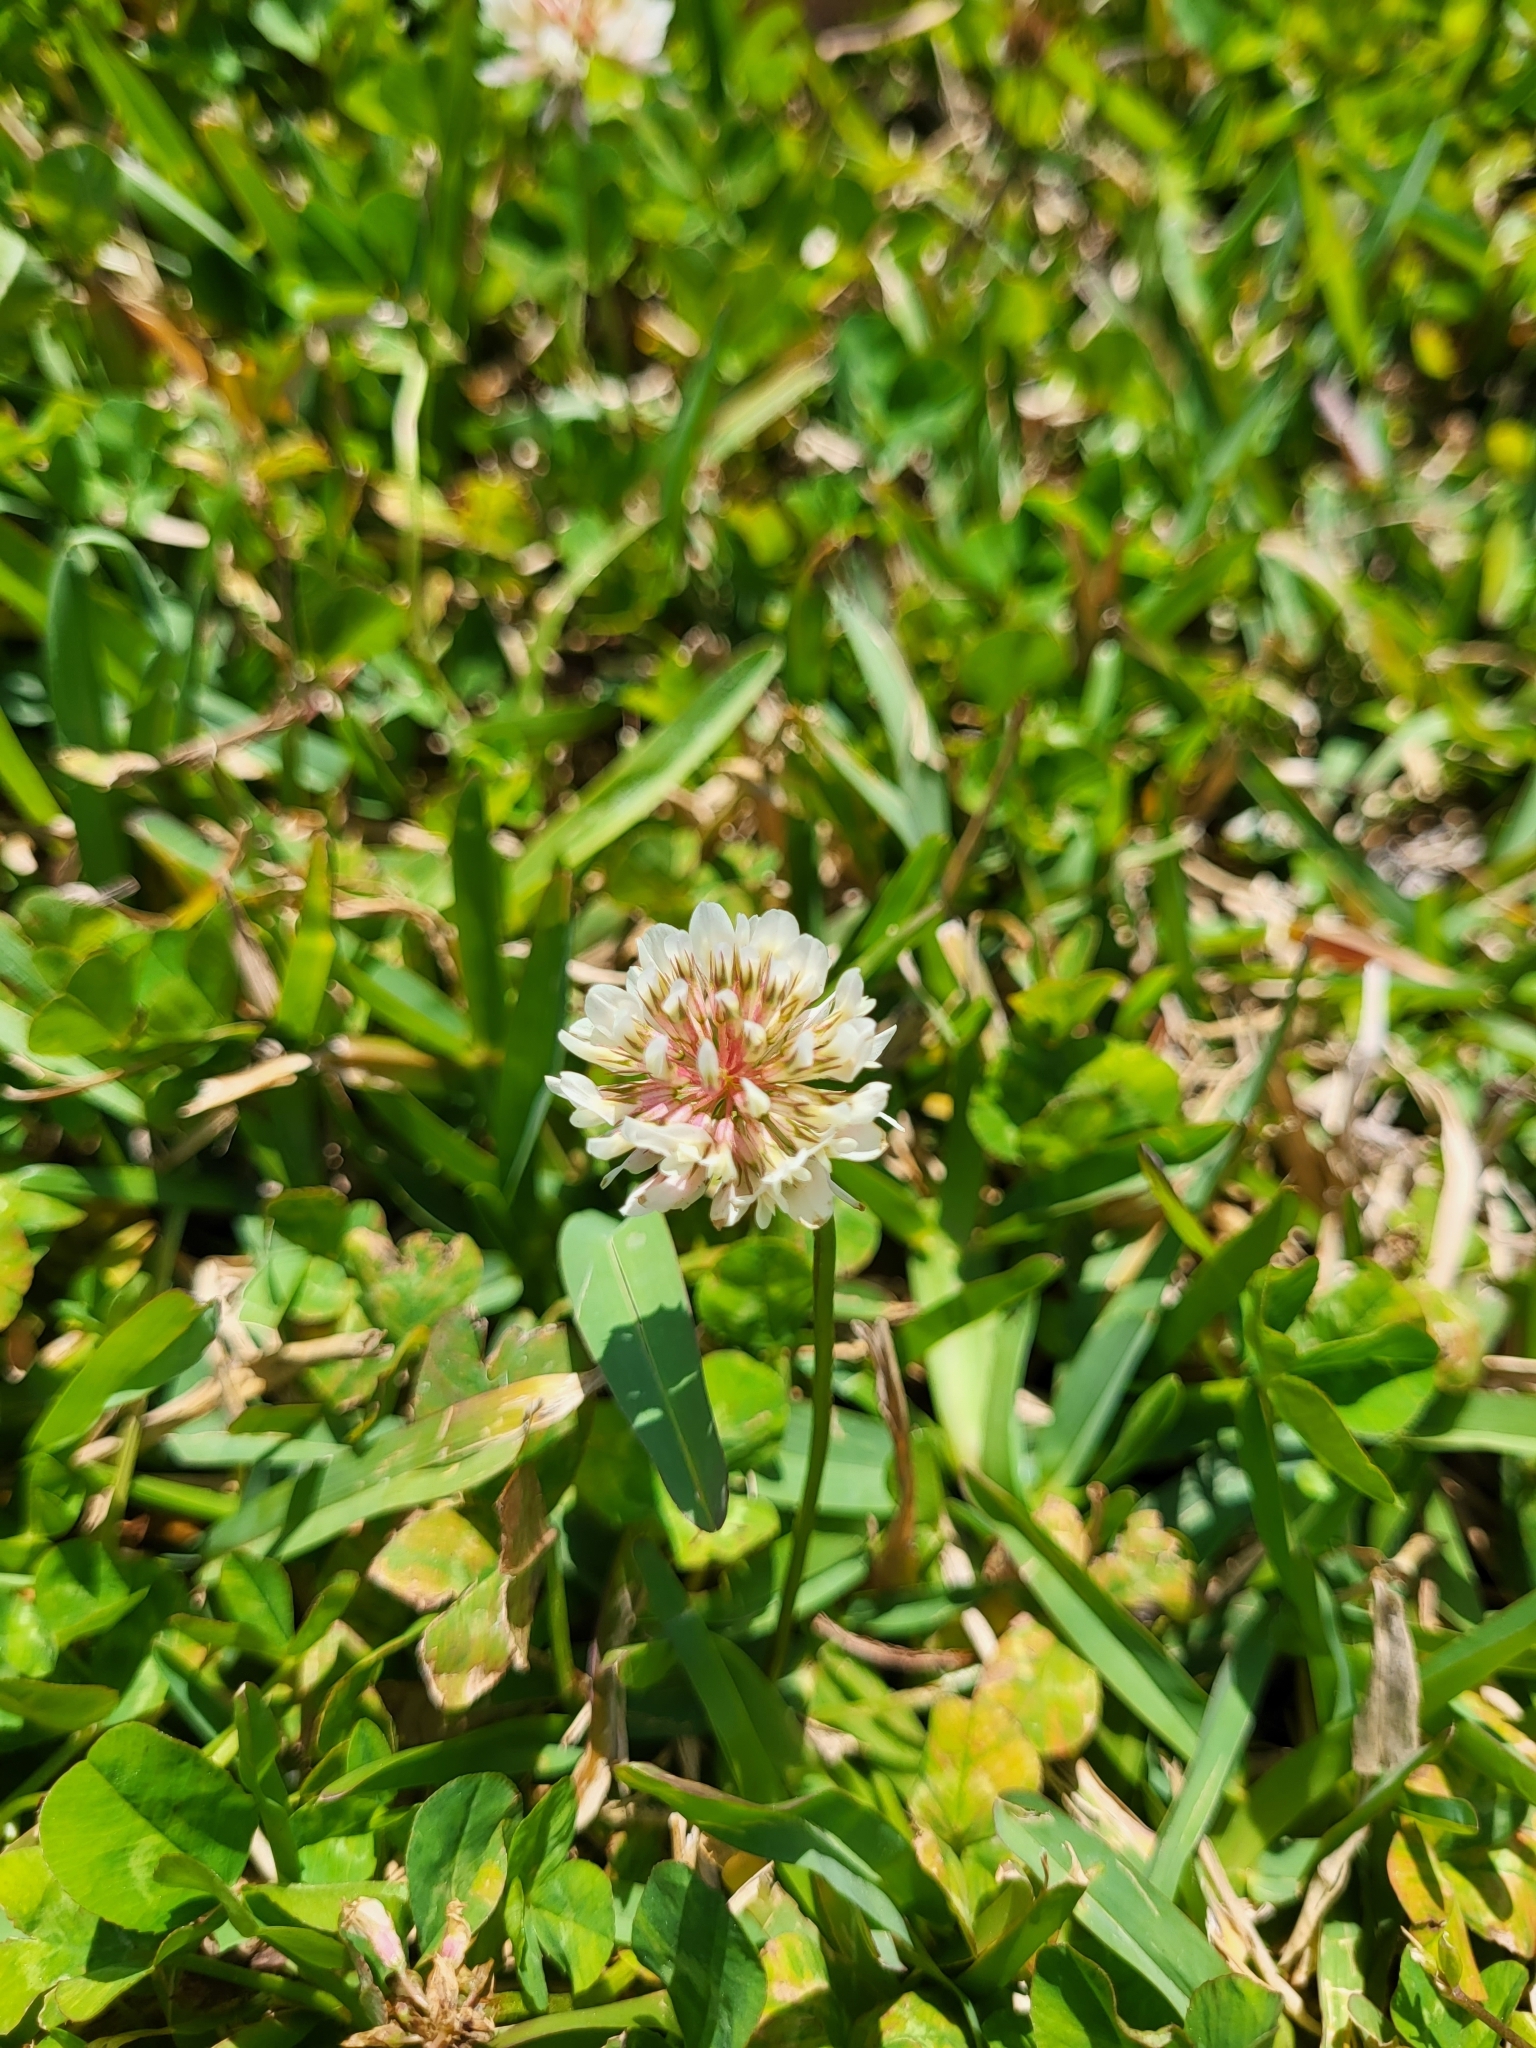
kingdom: Plantae
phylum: Tracheophyta
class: Magnoliopsida
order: Fabales
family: Fabaceae
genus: Trifolium
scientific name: Trifolium repens
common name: White clover
